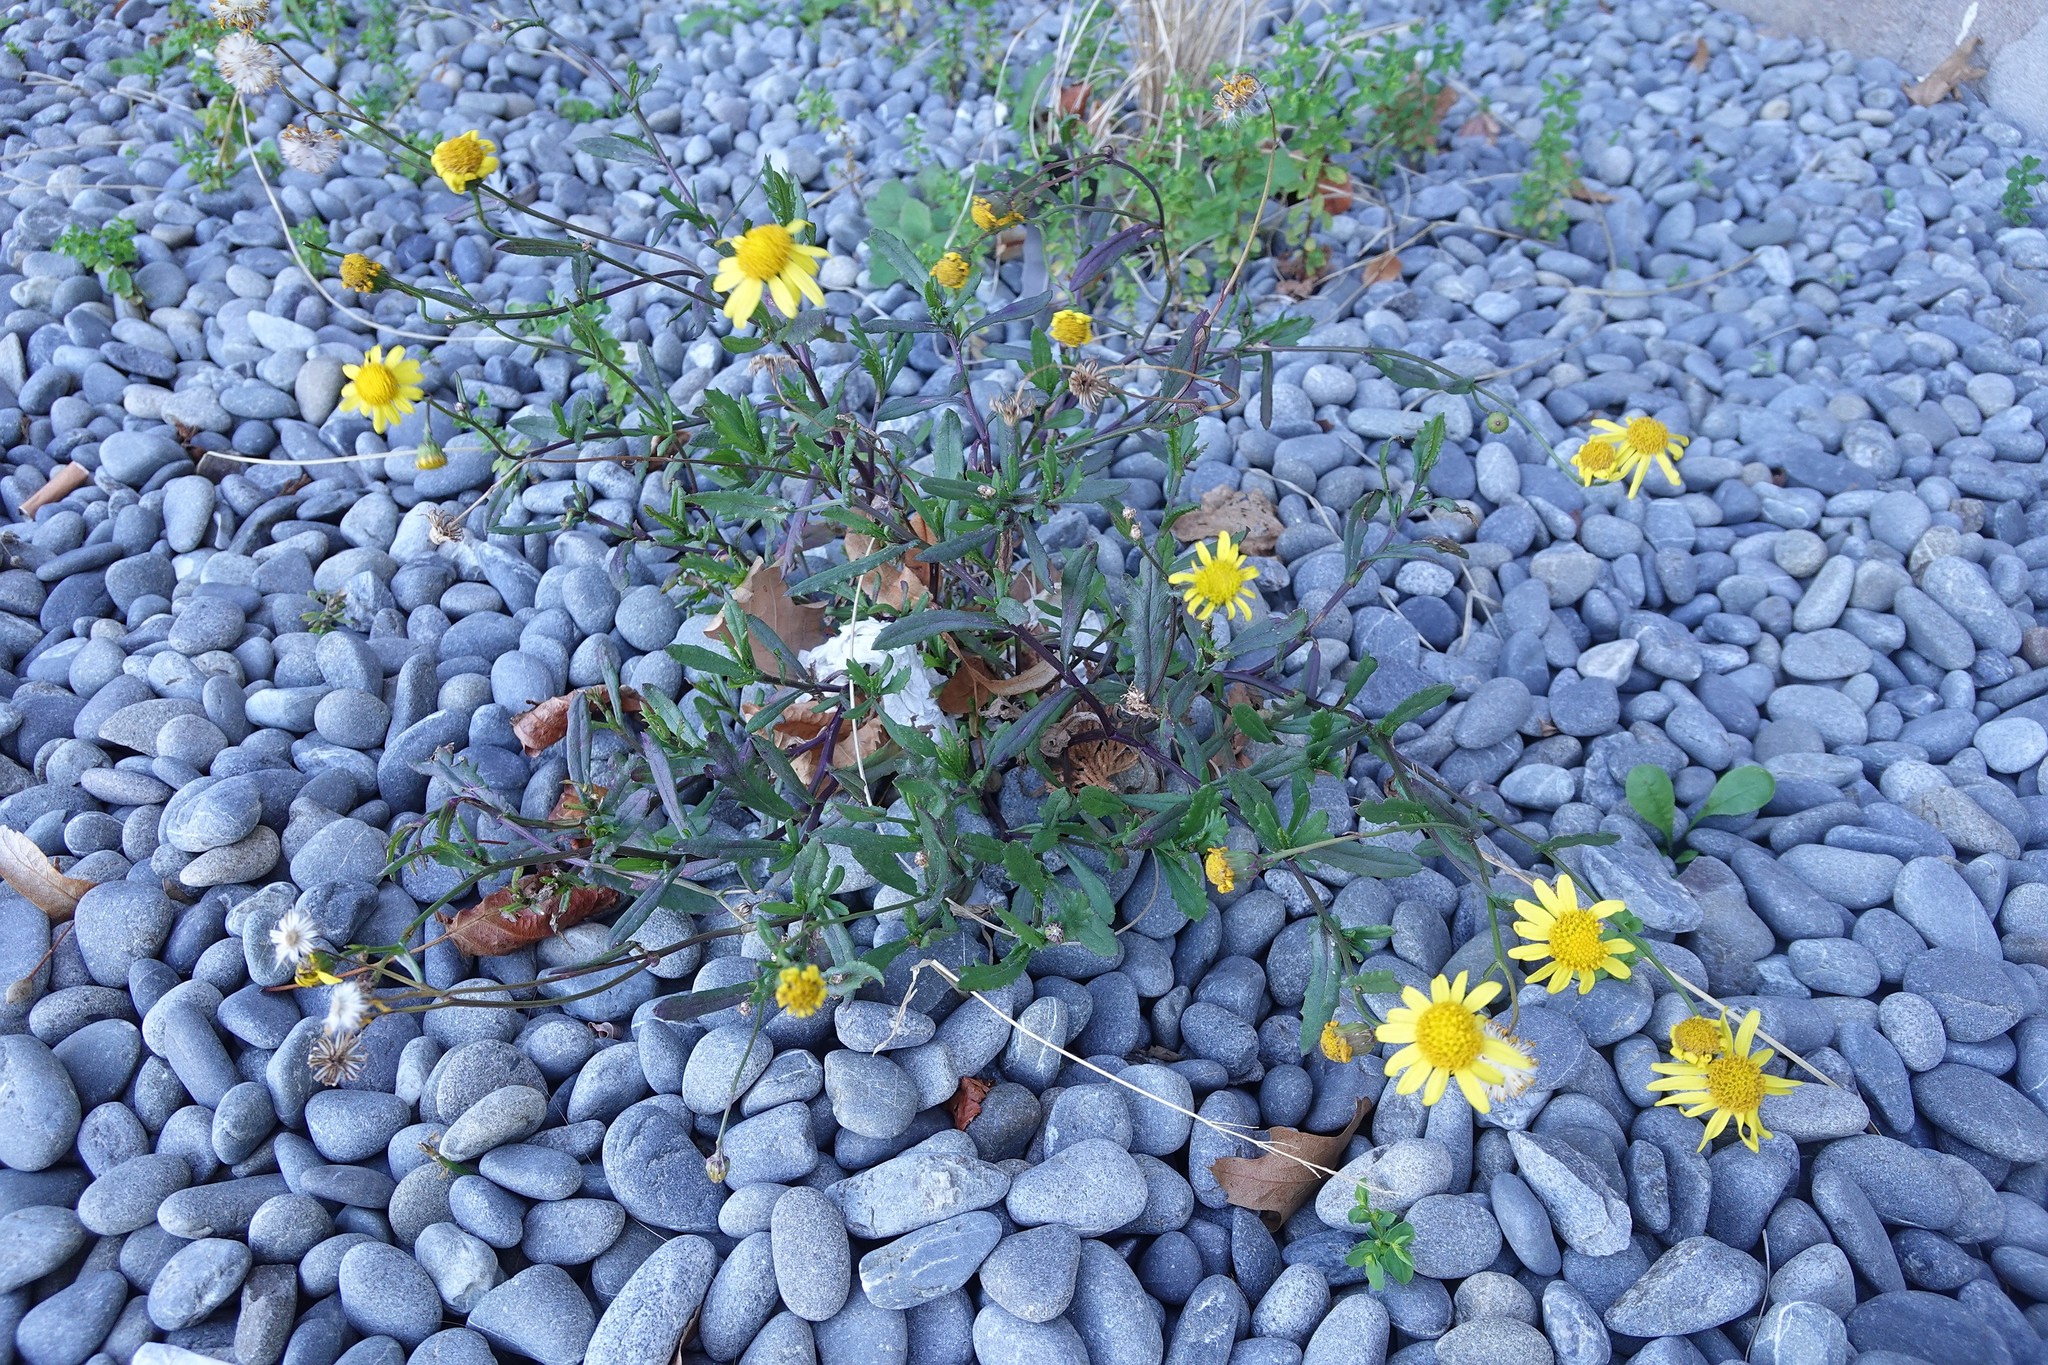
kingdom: Plantae
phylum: Tracheophyta
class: Magnoliopsida
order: Asterales
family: Asteraceae
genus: Senecio
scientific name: Senecio skirrhodon
